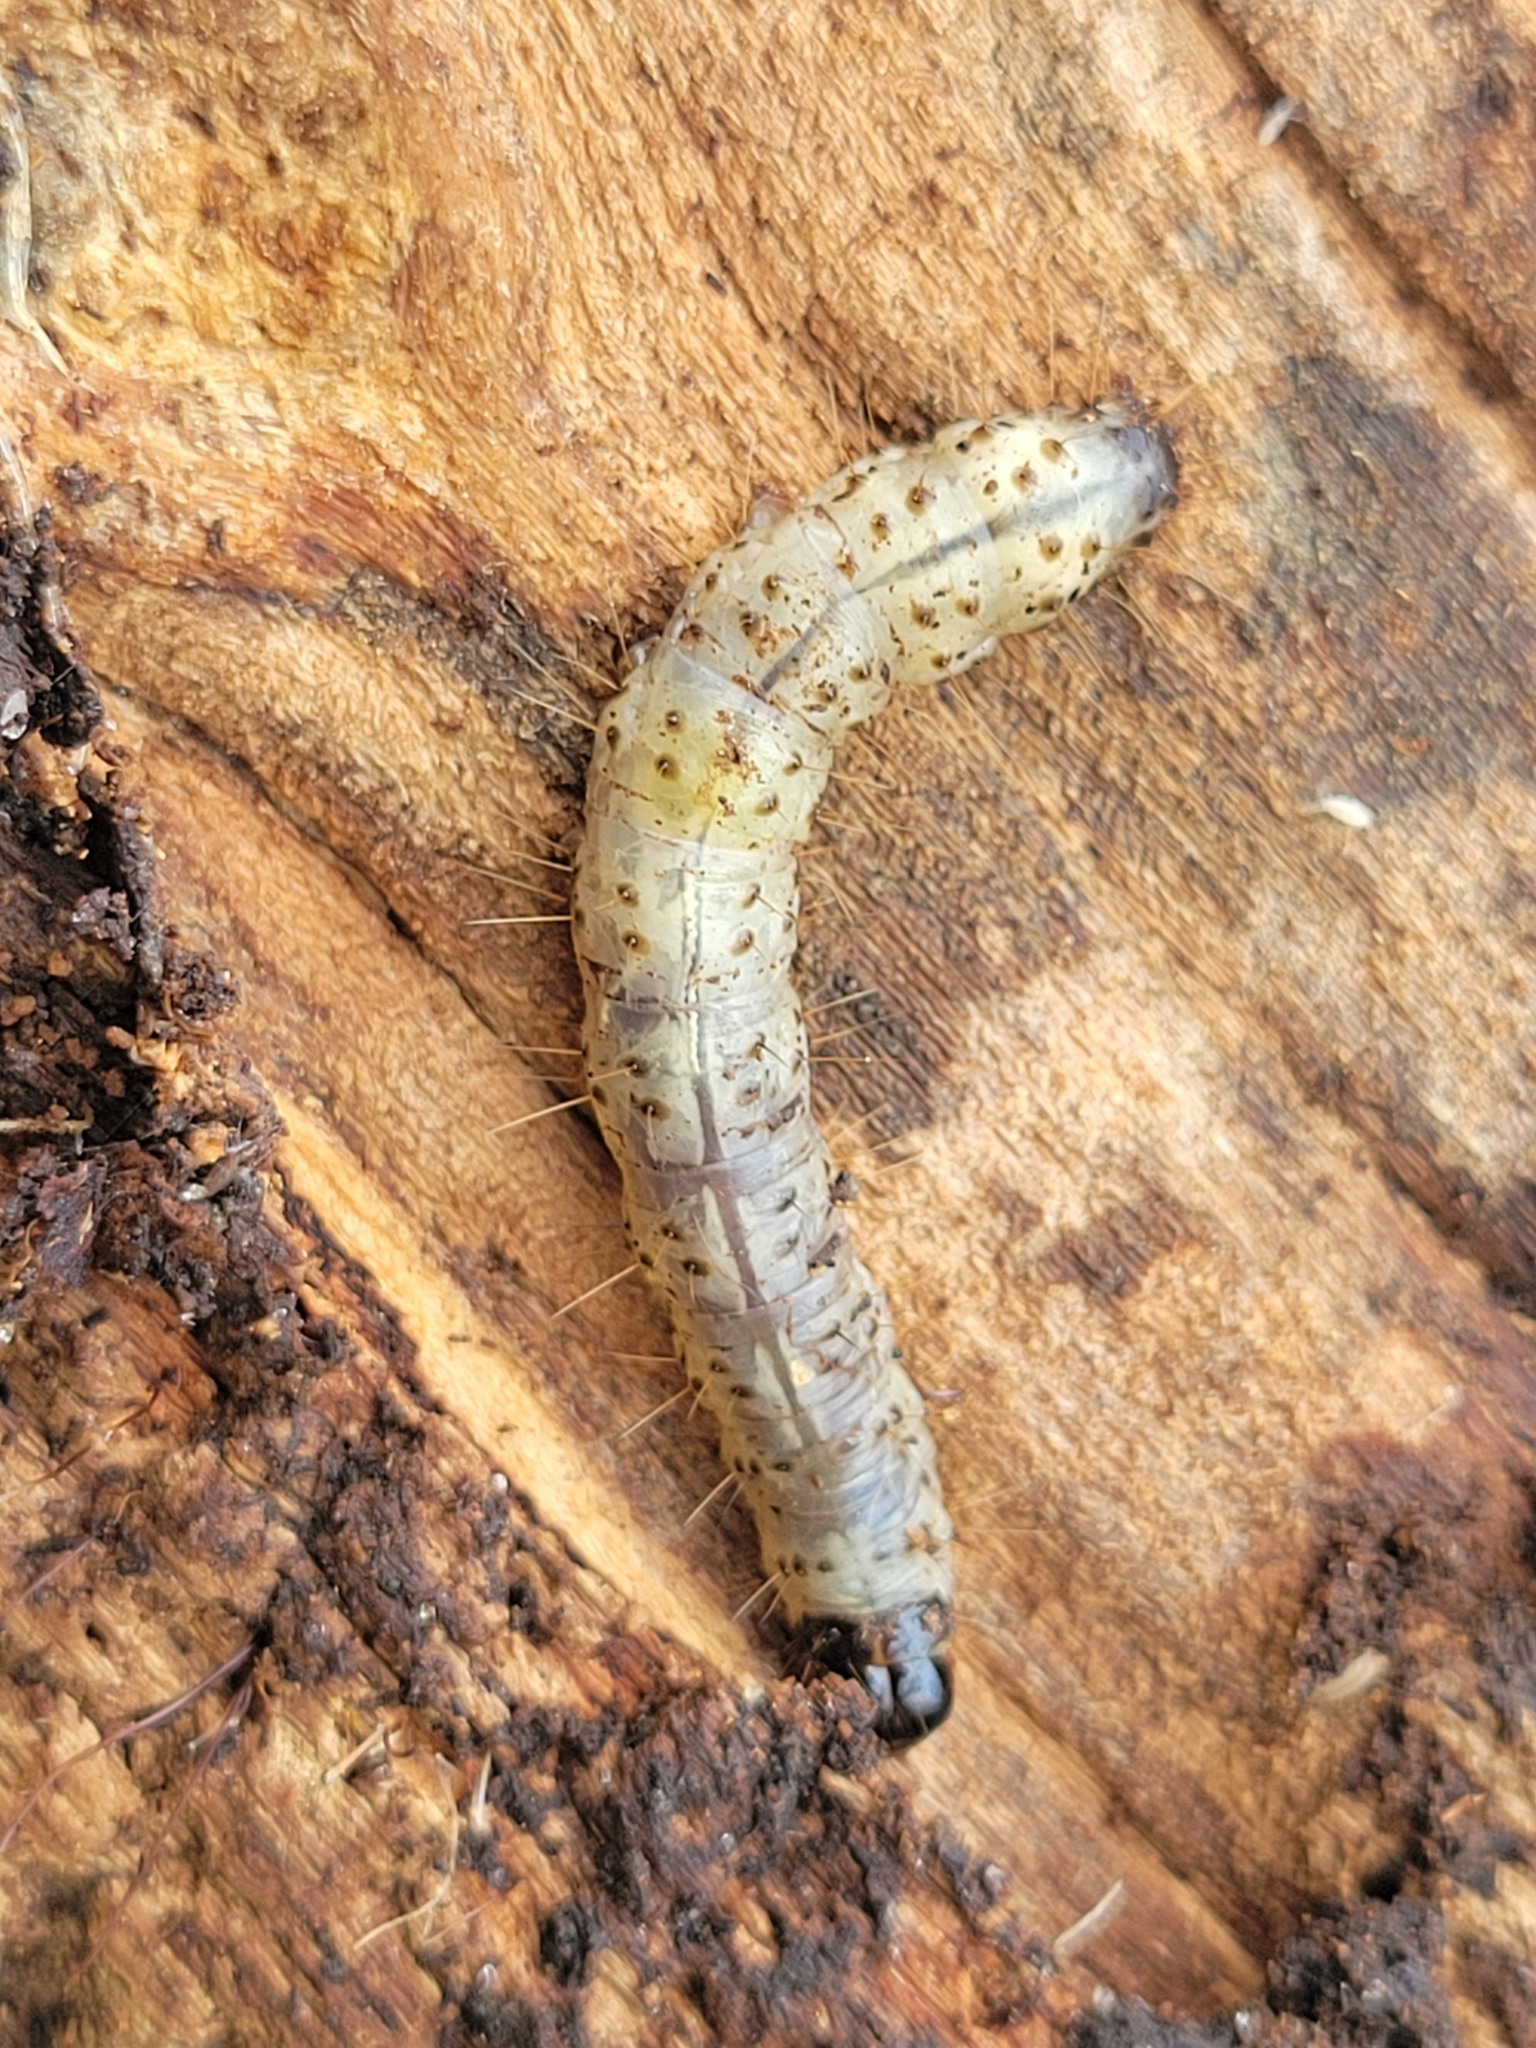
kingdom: Animalia
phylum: Arthropoda
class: Insecta
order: Lepidoptera
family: Erebidae
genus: Scolecocampa
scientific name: Scolecocampa liburna
